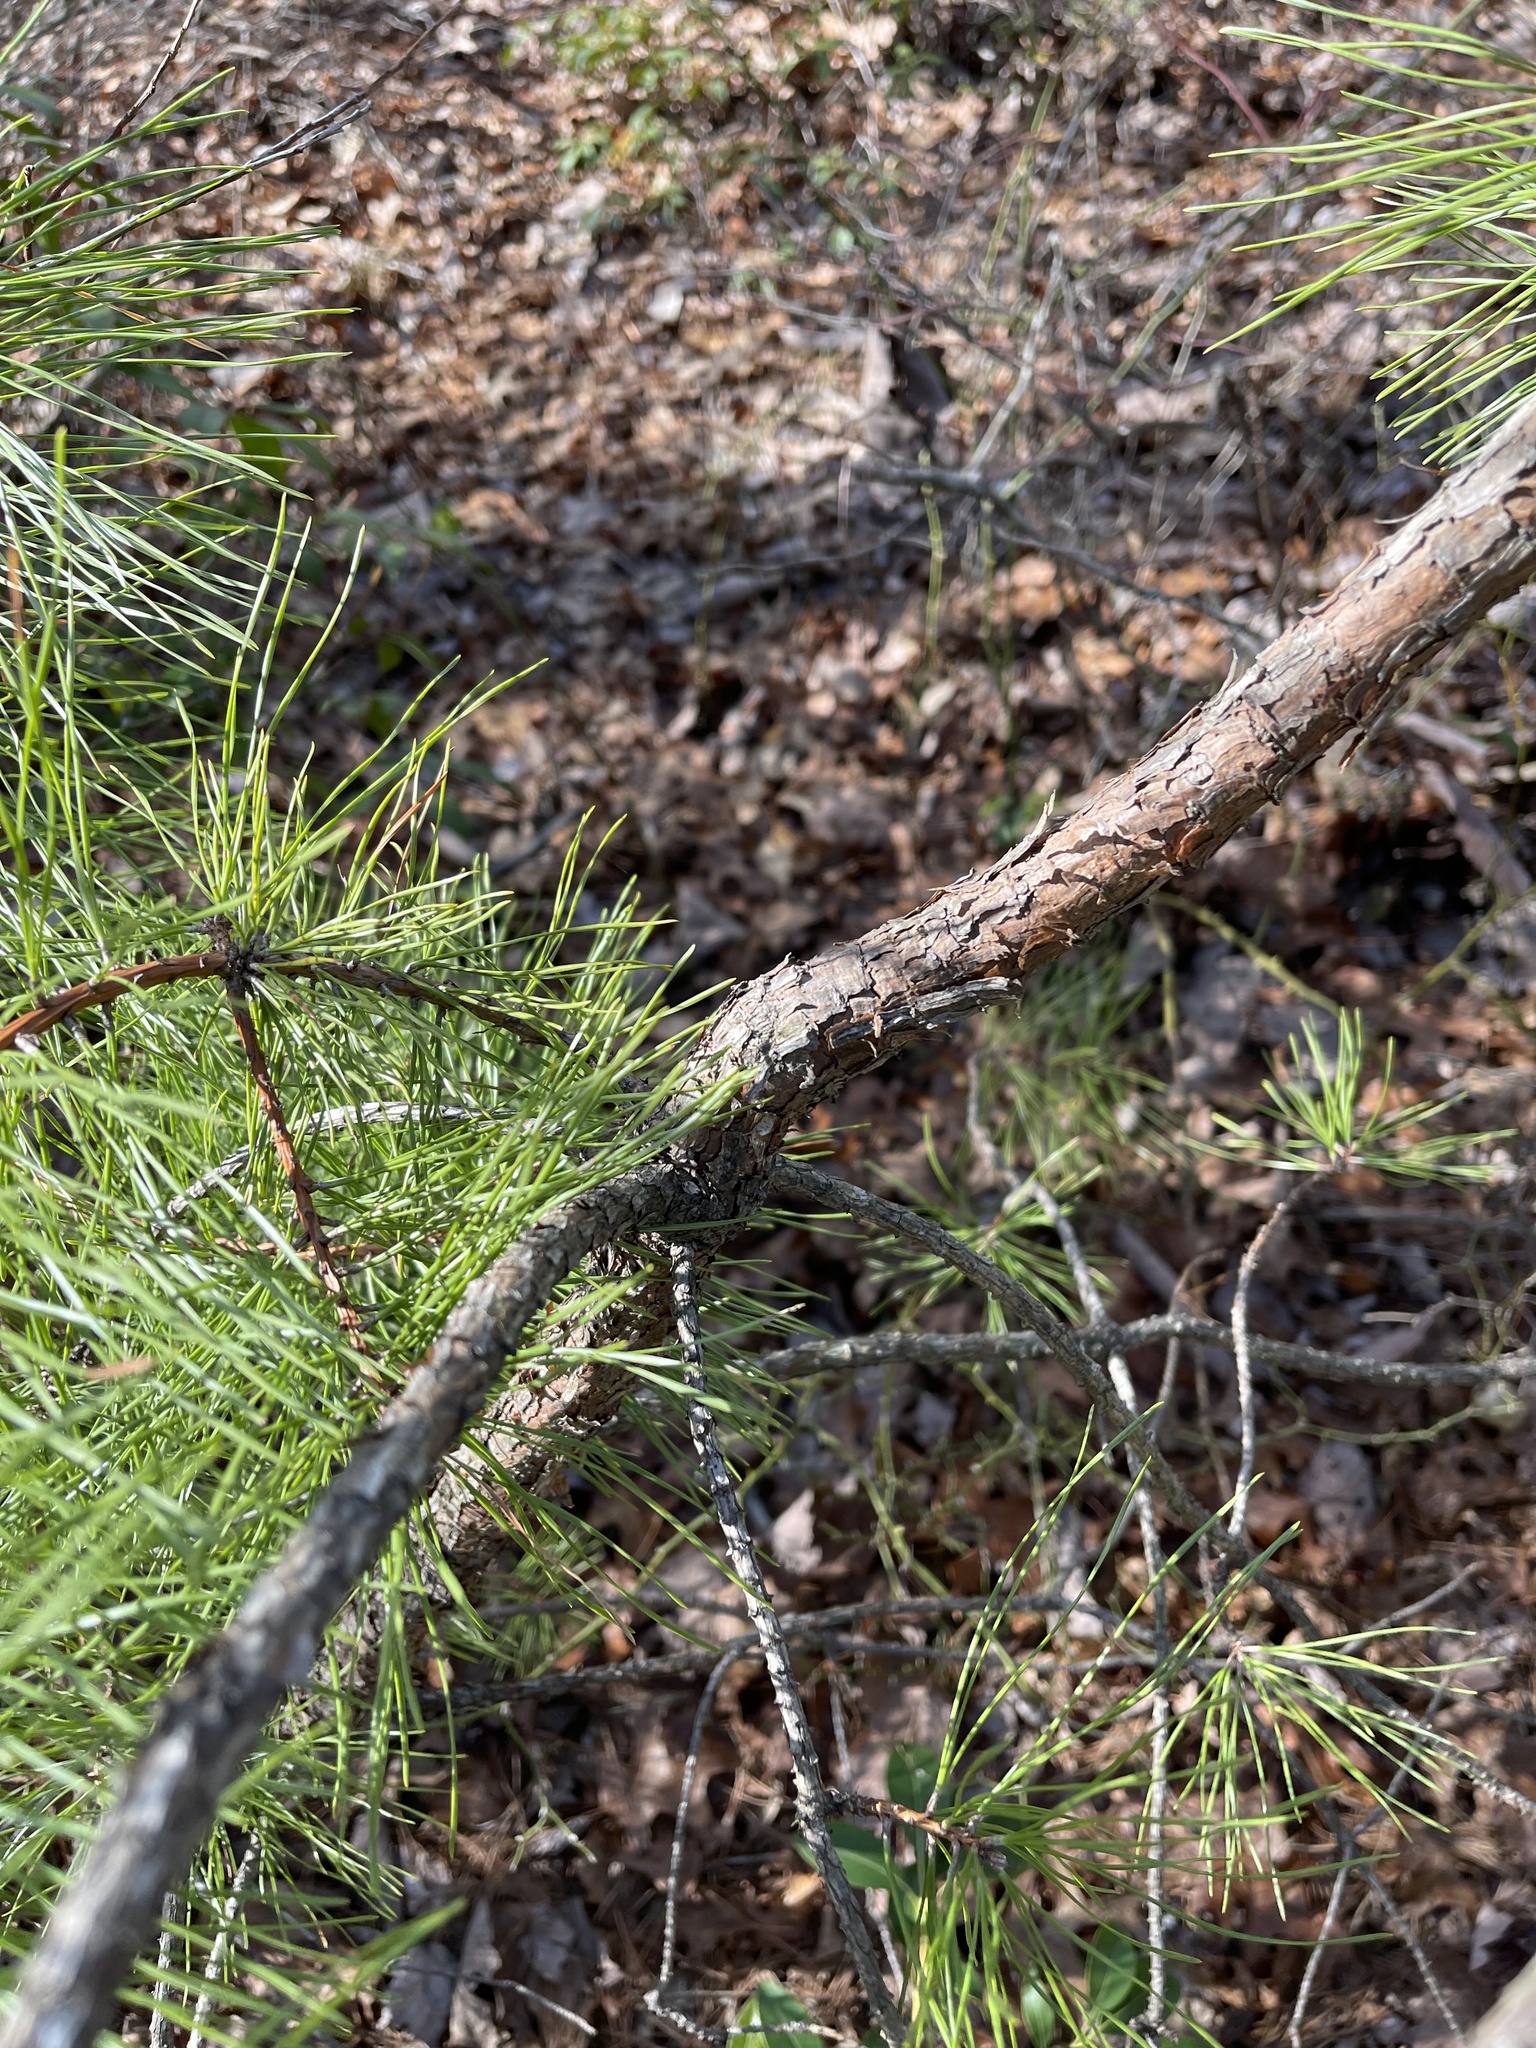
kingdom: Plantae
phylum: Tracheophyta
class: Pinopsida
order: Pinales
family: Pinaceae
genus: Pinus
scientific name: Pinus rigida
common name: Pitch pine
